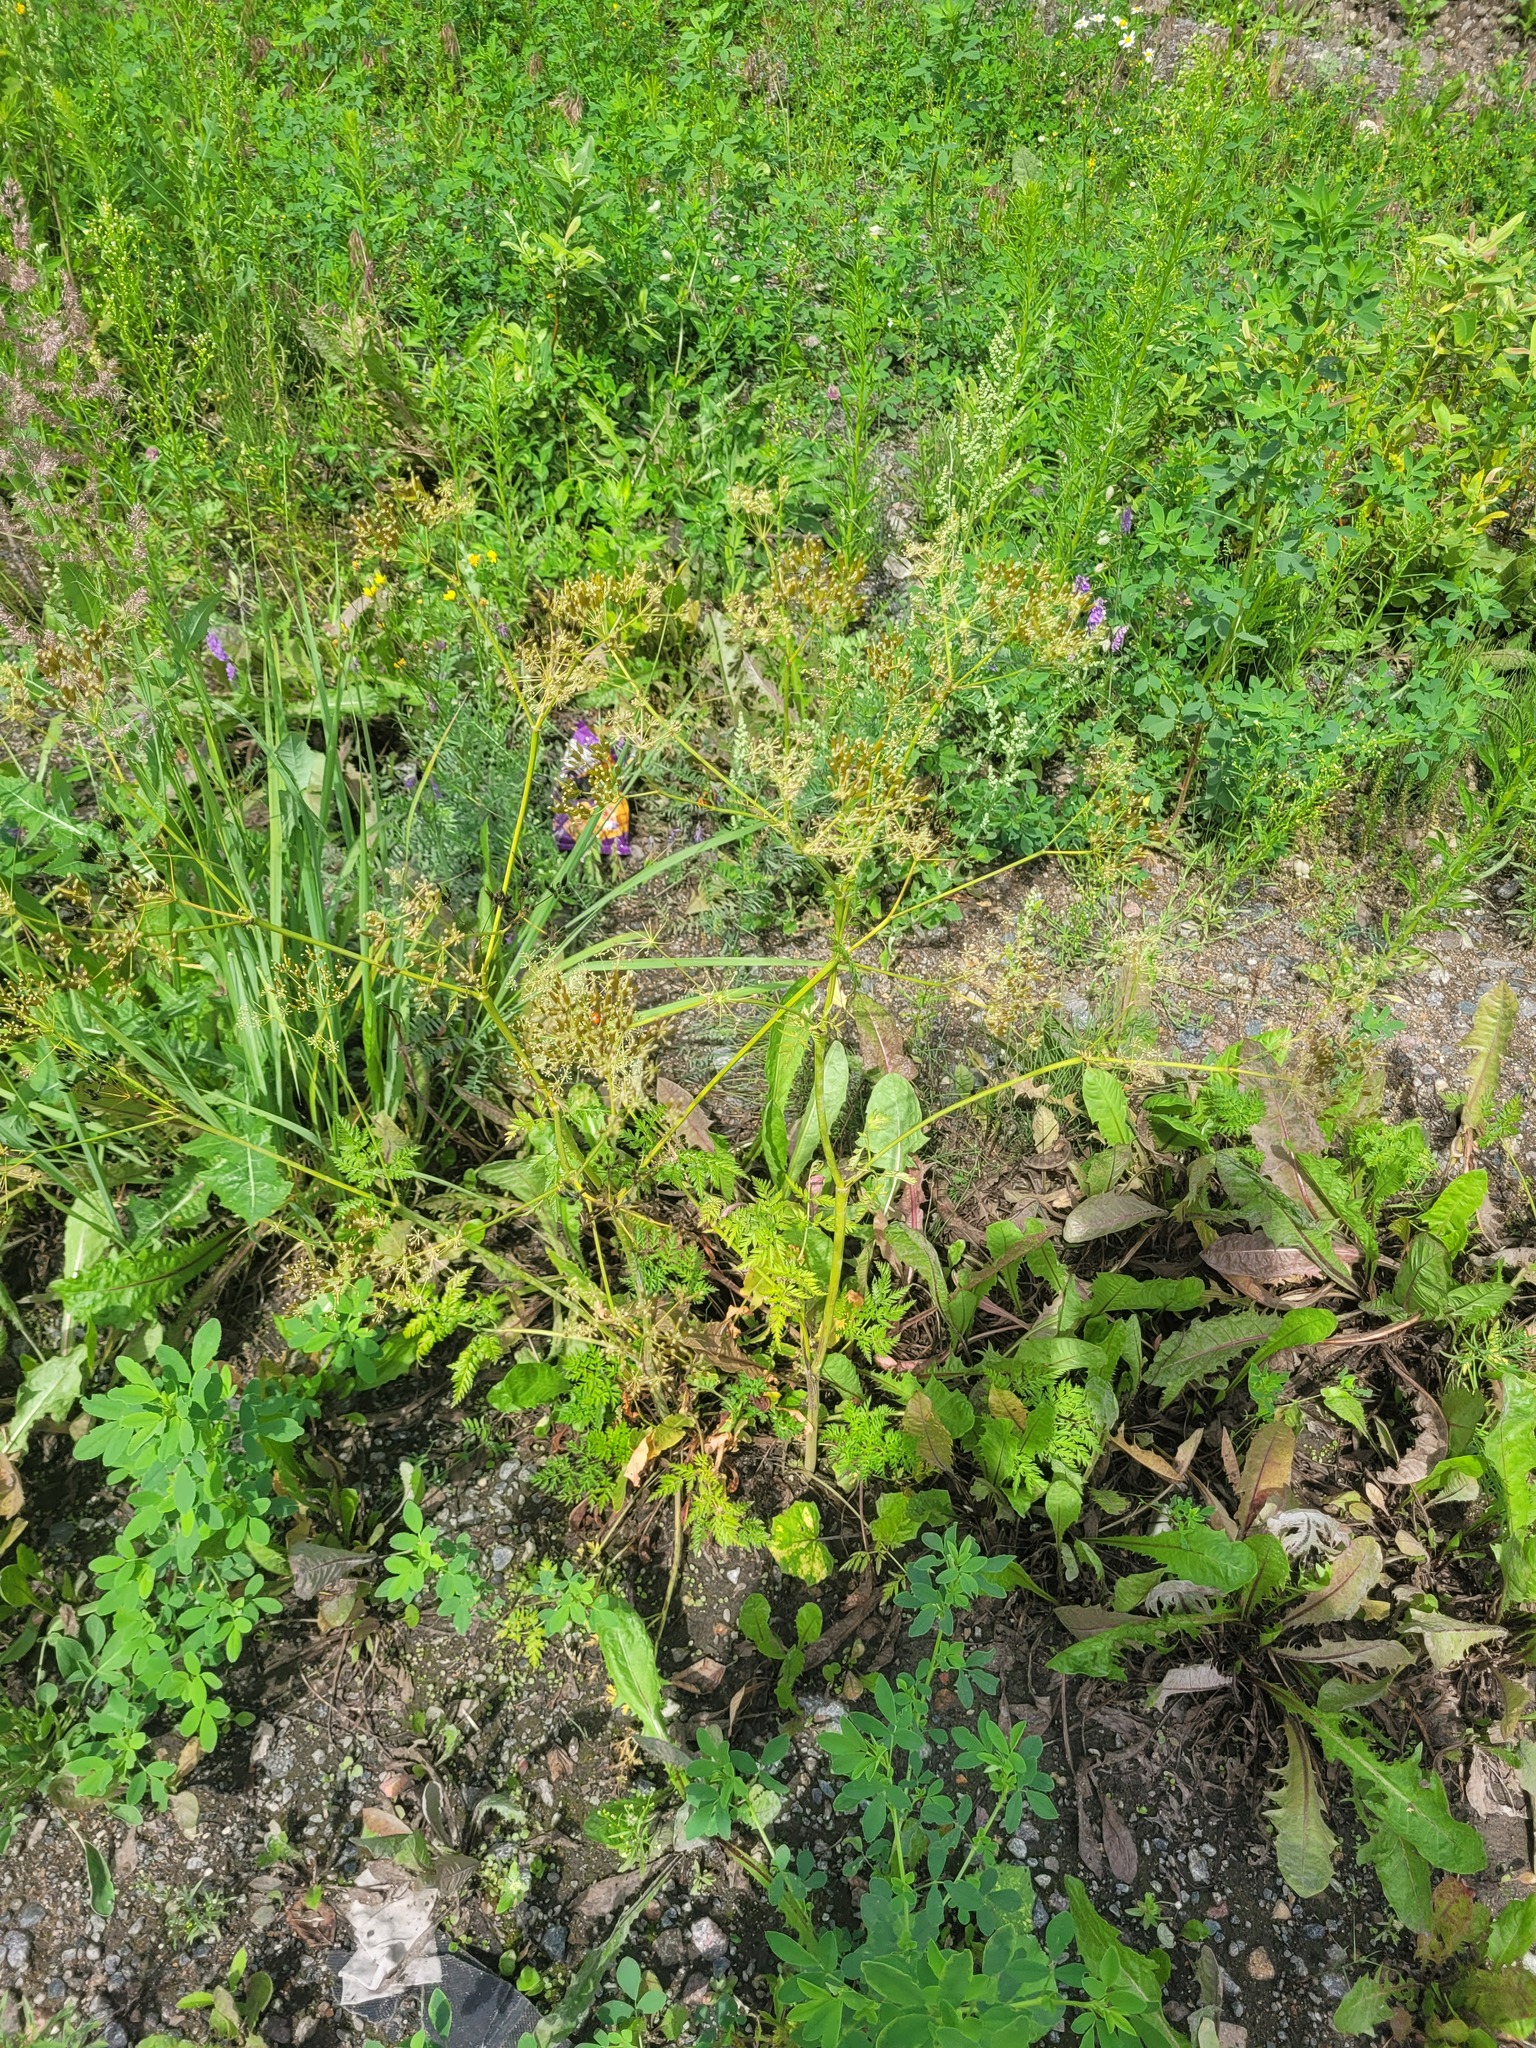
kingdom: Plantae
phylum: Tracheophyta
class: Magnoliopsida
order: Apiales
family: Apiaceae
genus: Anthriscus
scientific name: Anthriscus sylvestris
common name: Cow parsley
